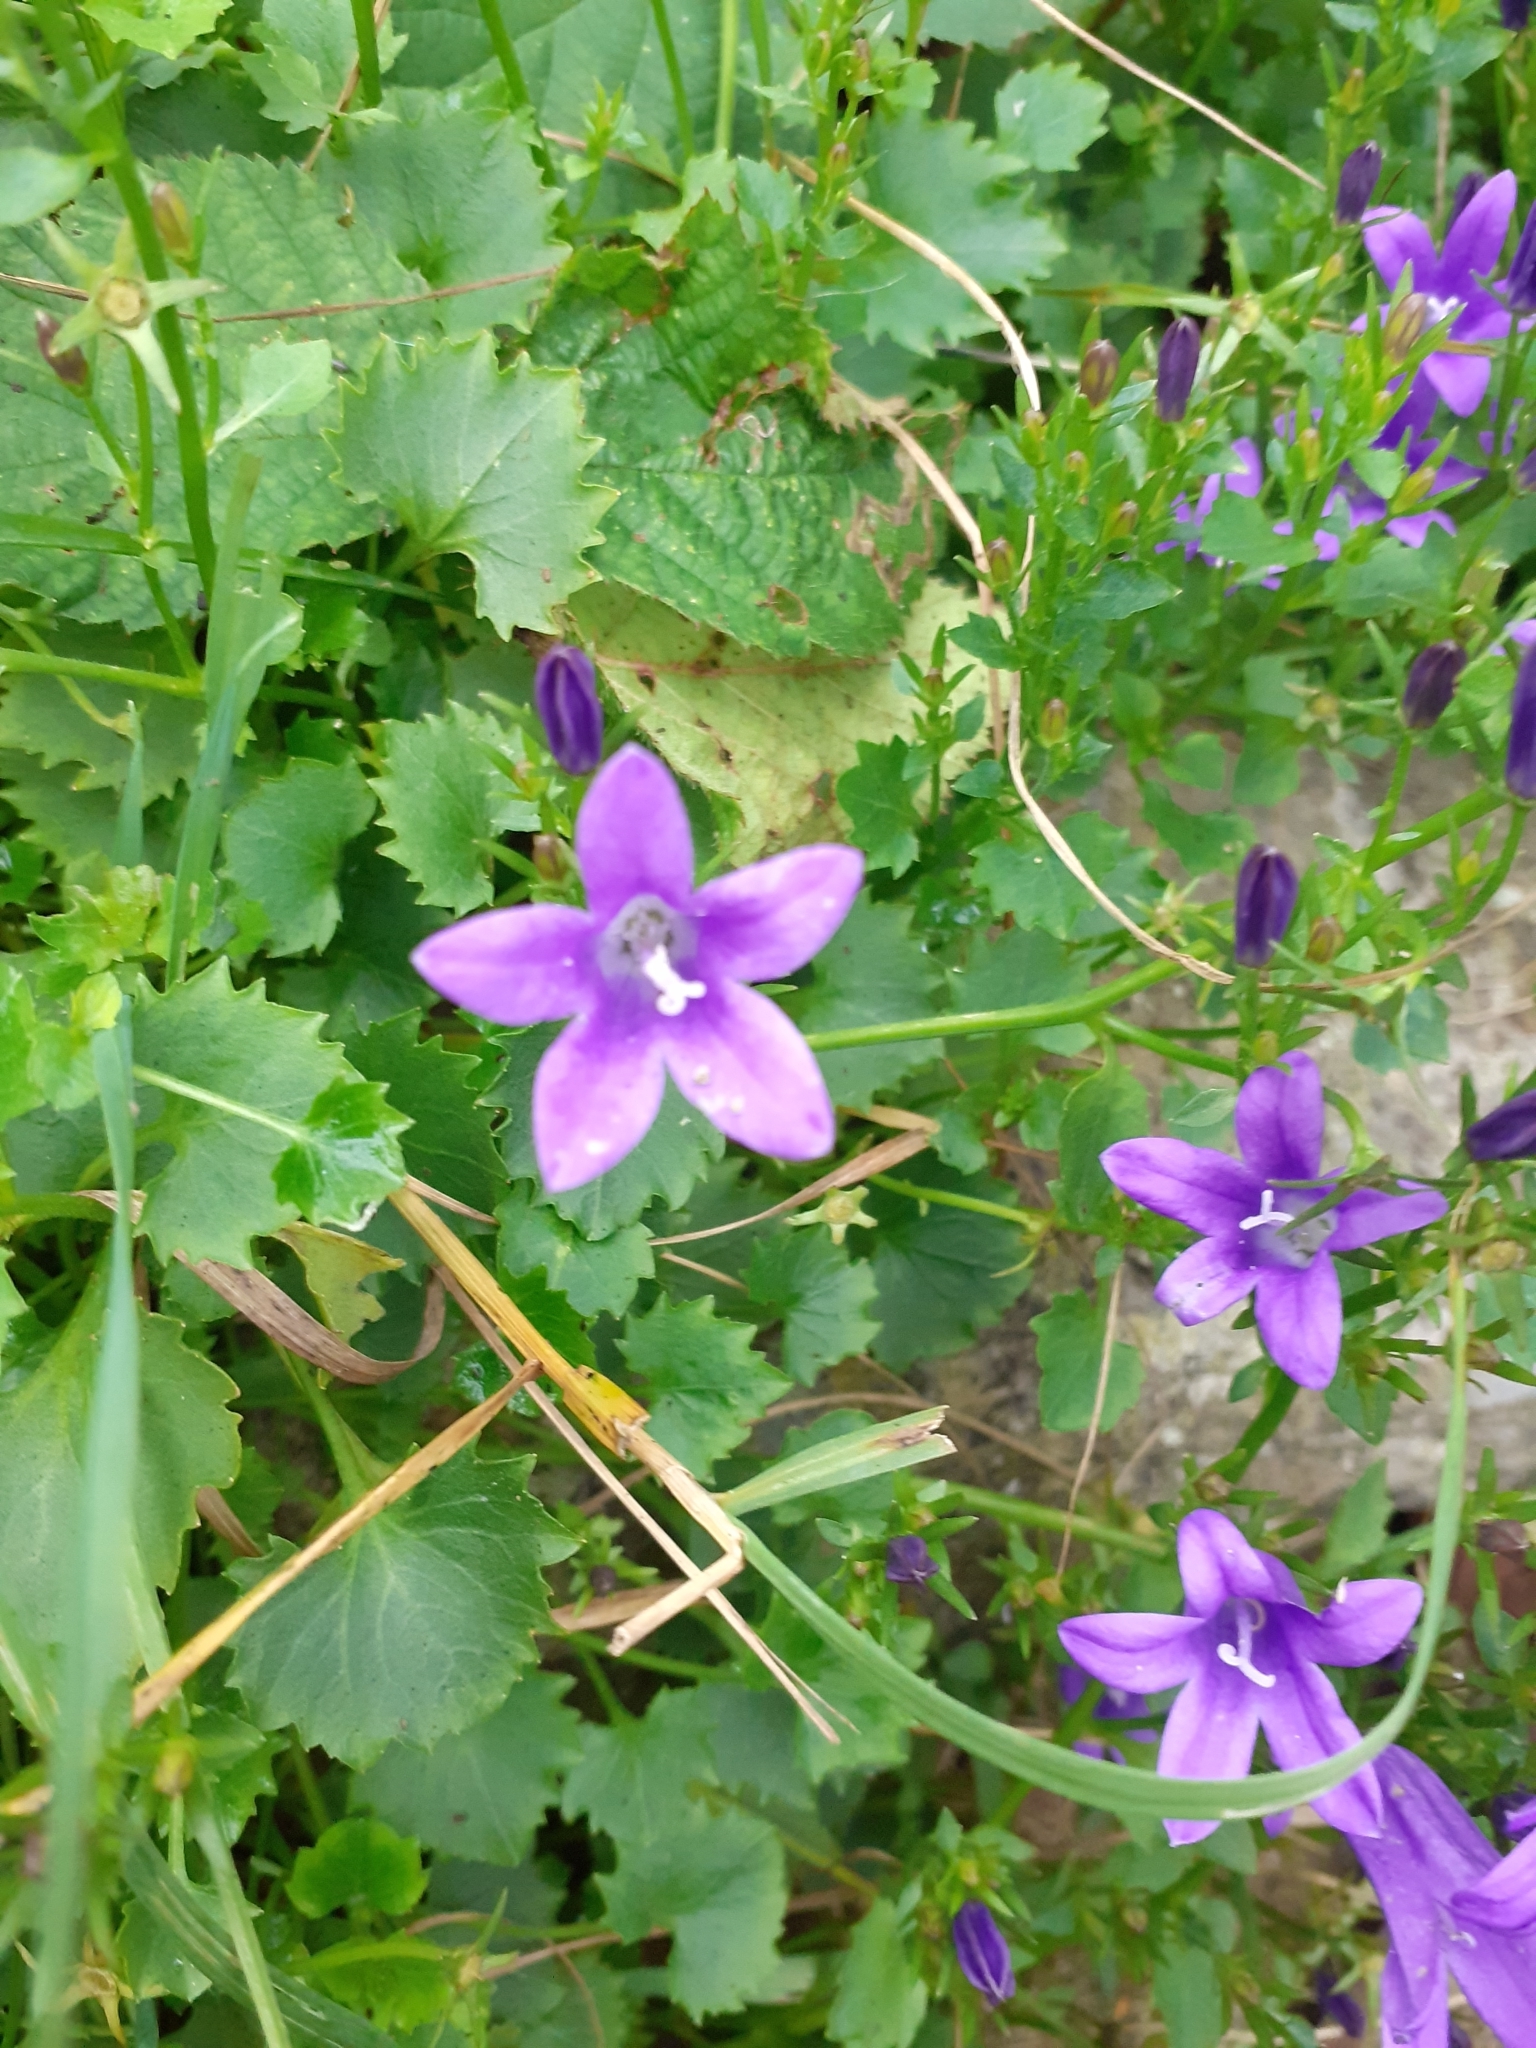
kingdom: Plantae
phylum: Tracheophyta
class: Magnoliopsida
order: Asterales
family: Campanulaceae
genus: Campanula
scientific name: Campanula poscharskyana
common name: Trailing bellflower
